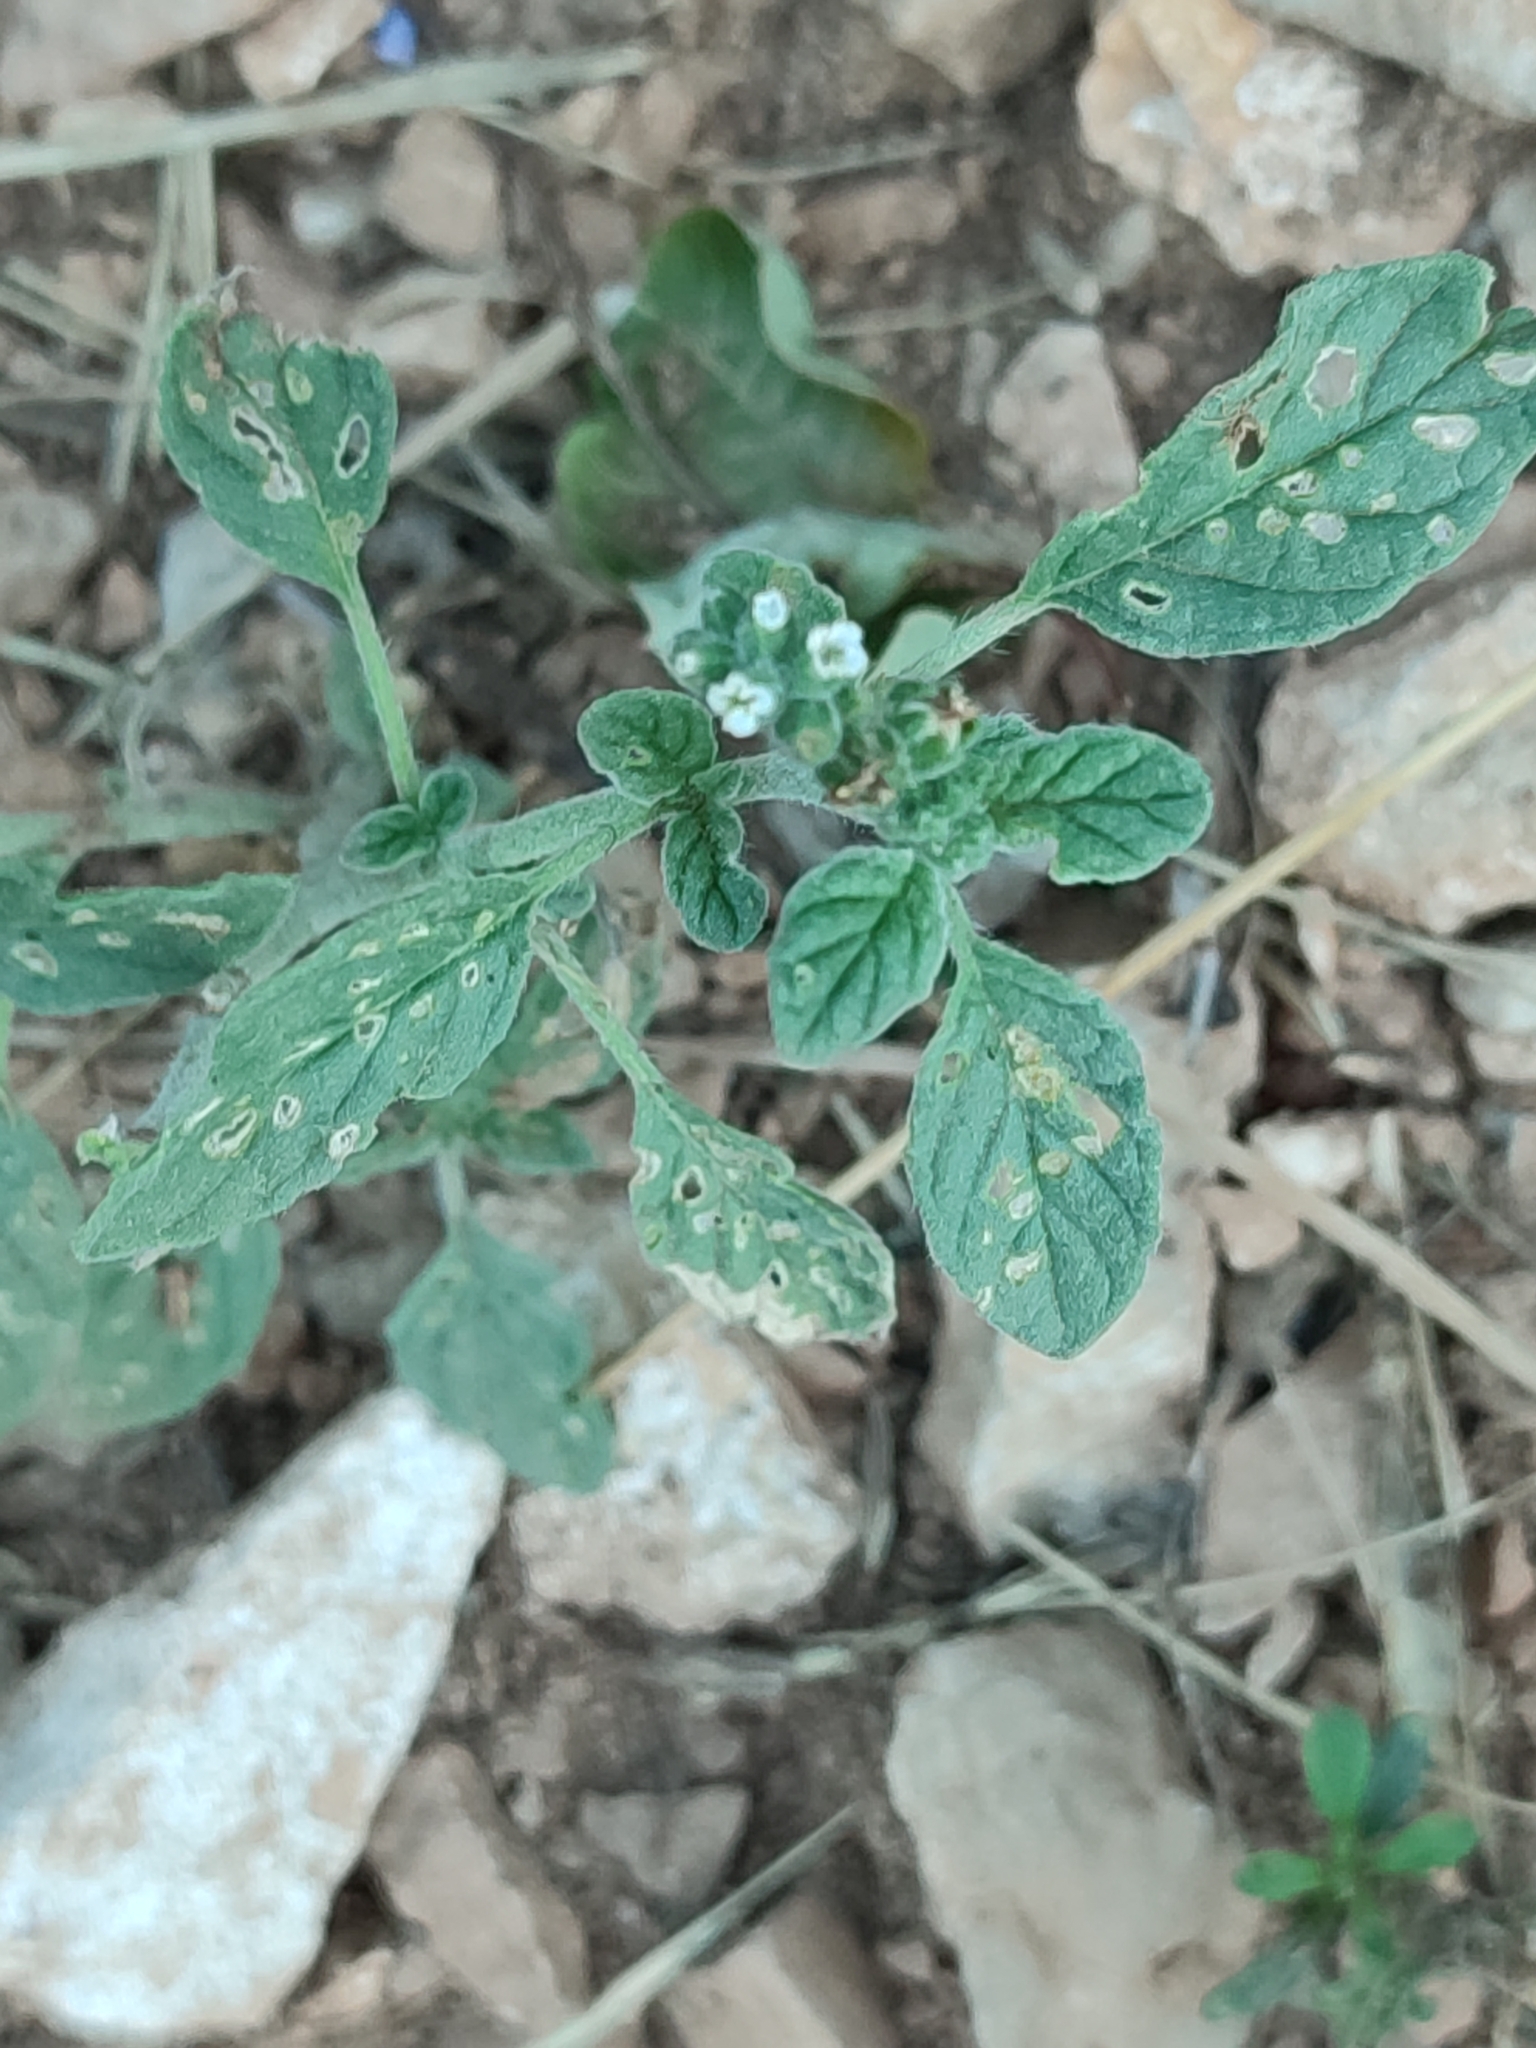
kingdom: Plantae
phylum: Tracheophyta
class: Magnoliopsida
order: Boraginales
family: Heliotropiaceae
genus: Heliotropium
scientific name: Heliotropium europaeum
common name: European heliotrope
